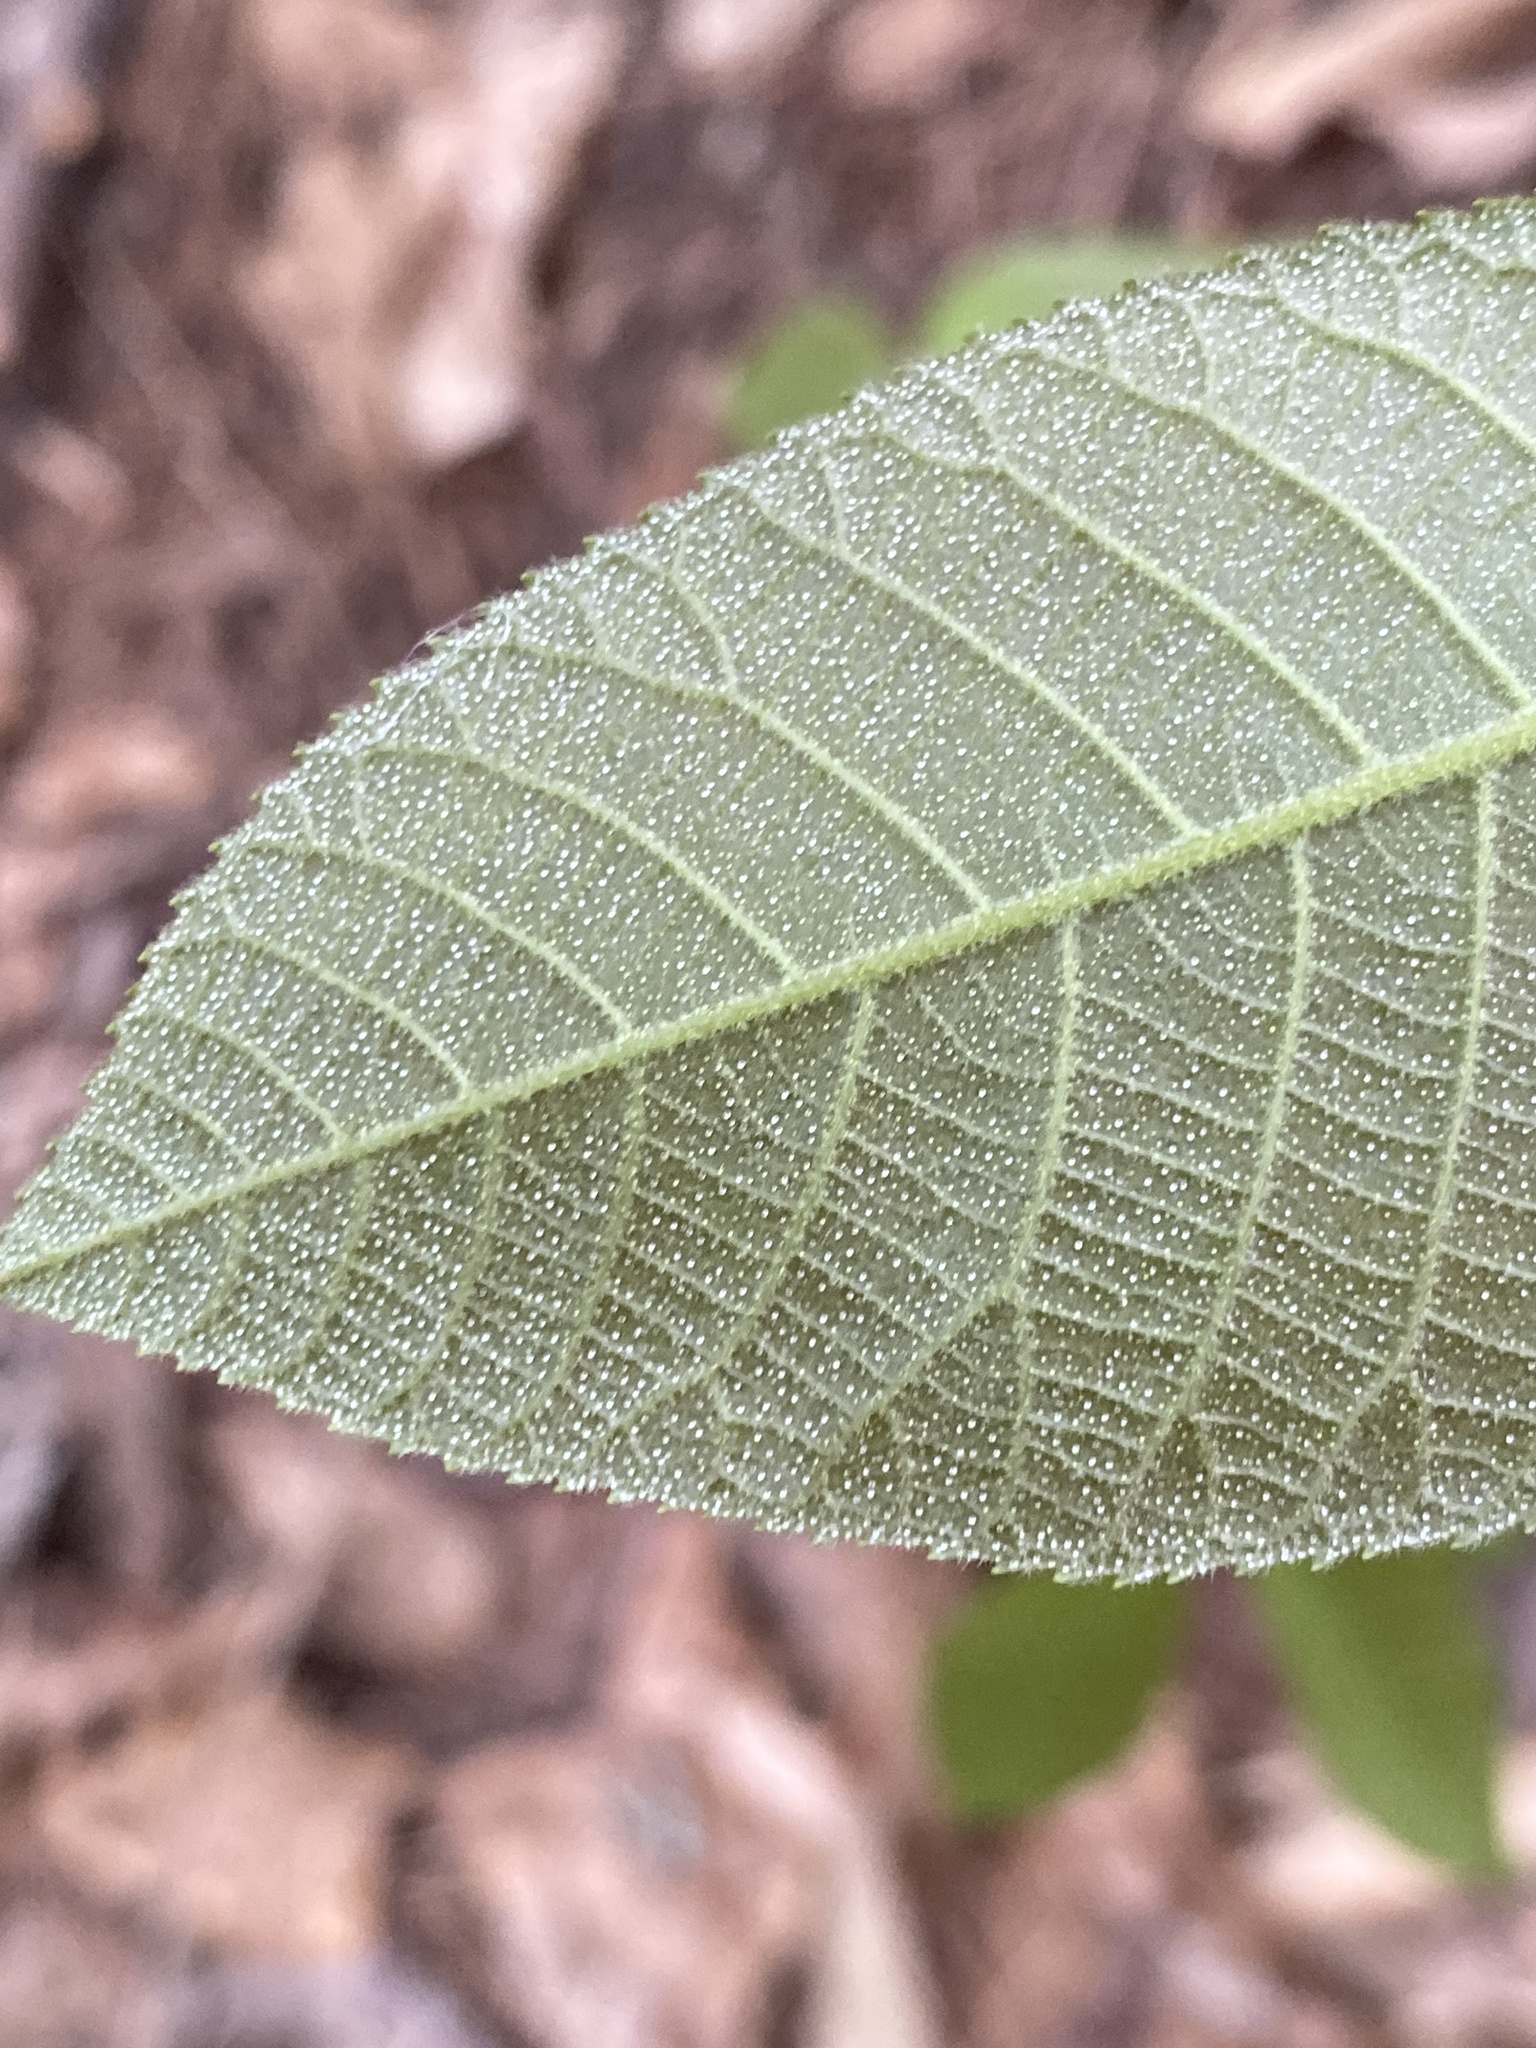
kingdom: Plantae
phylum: Tracheophyta
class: Magnoliopsida
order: Fagales
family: Juglandaceae
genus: Carya
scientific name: Carya alba
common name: Mockernut hickory
